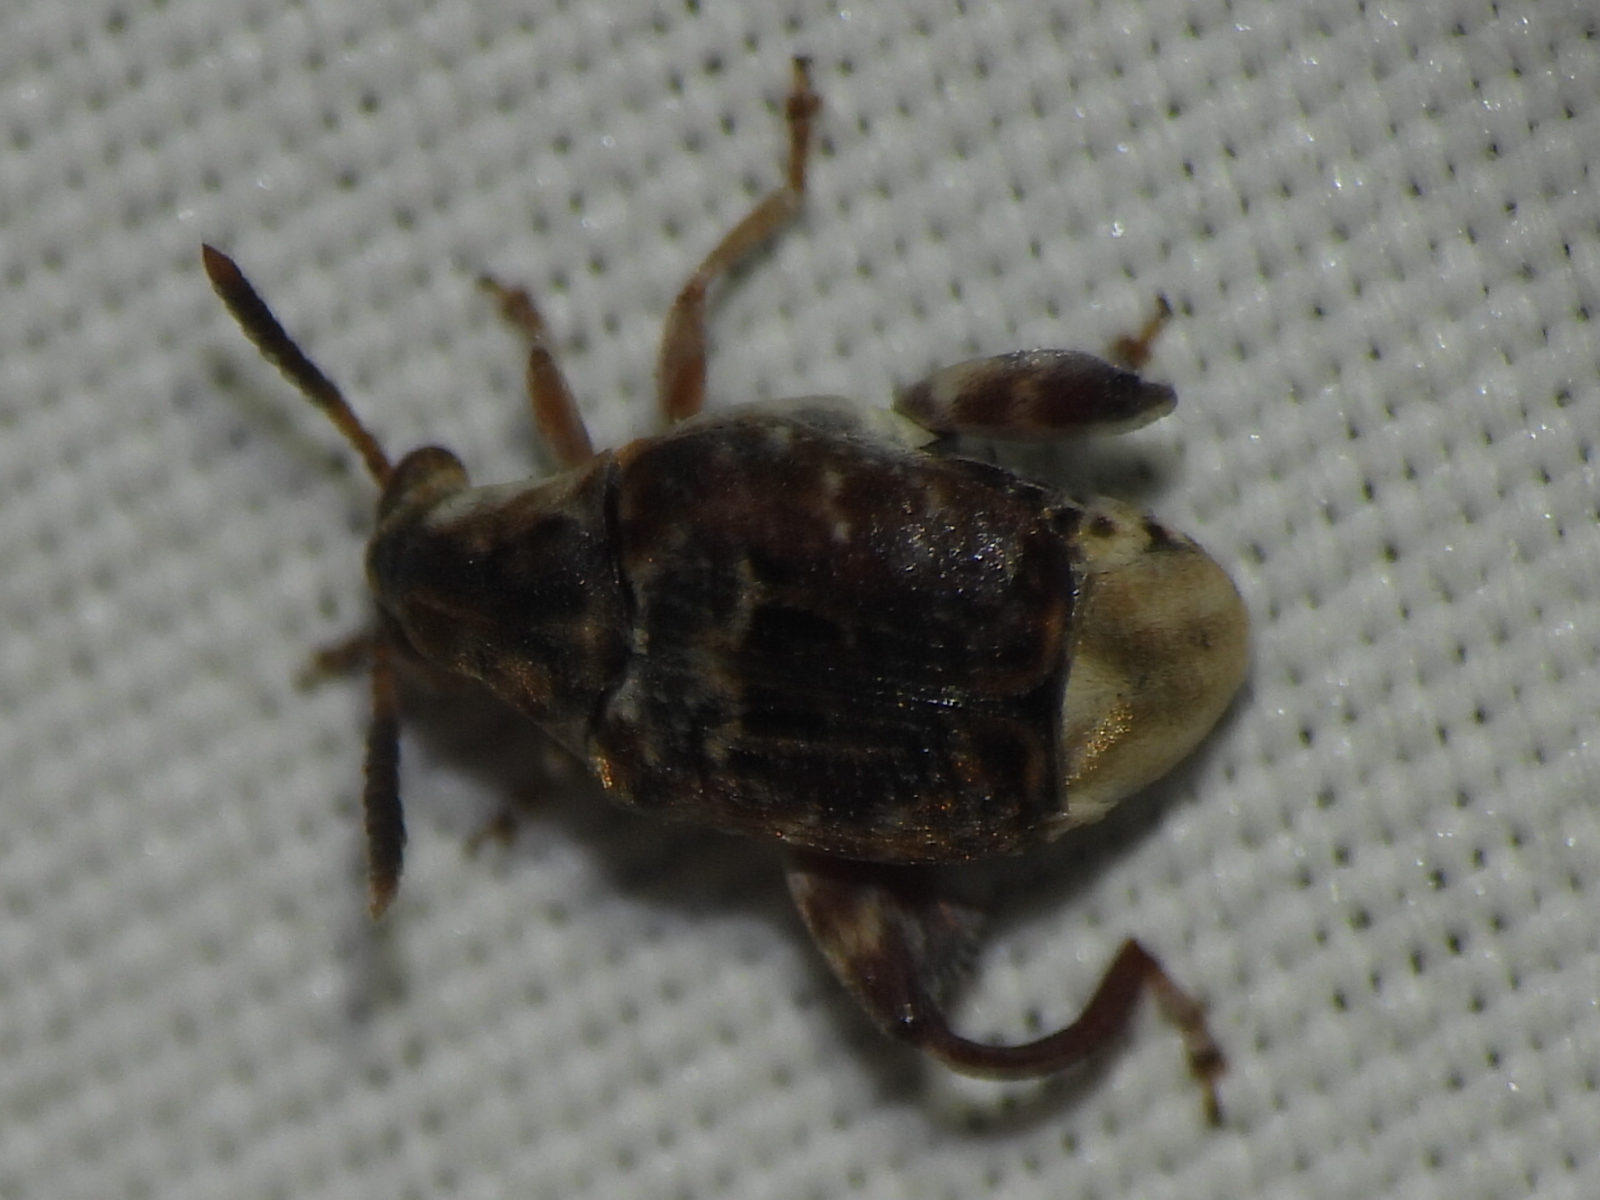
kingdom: Animalia
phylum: Arthropoda
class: Insecta
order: Coleoptera
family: Chrysomelidae
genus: Penthobruchus
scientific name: Penthobruchus
